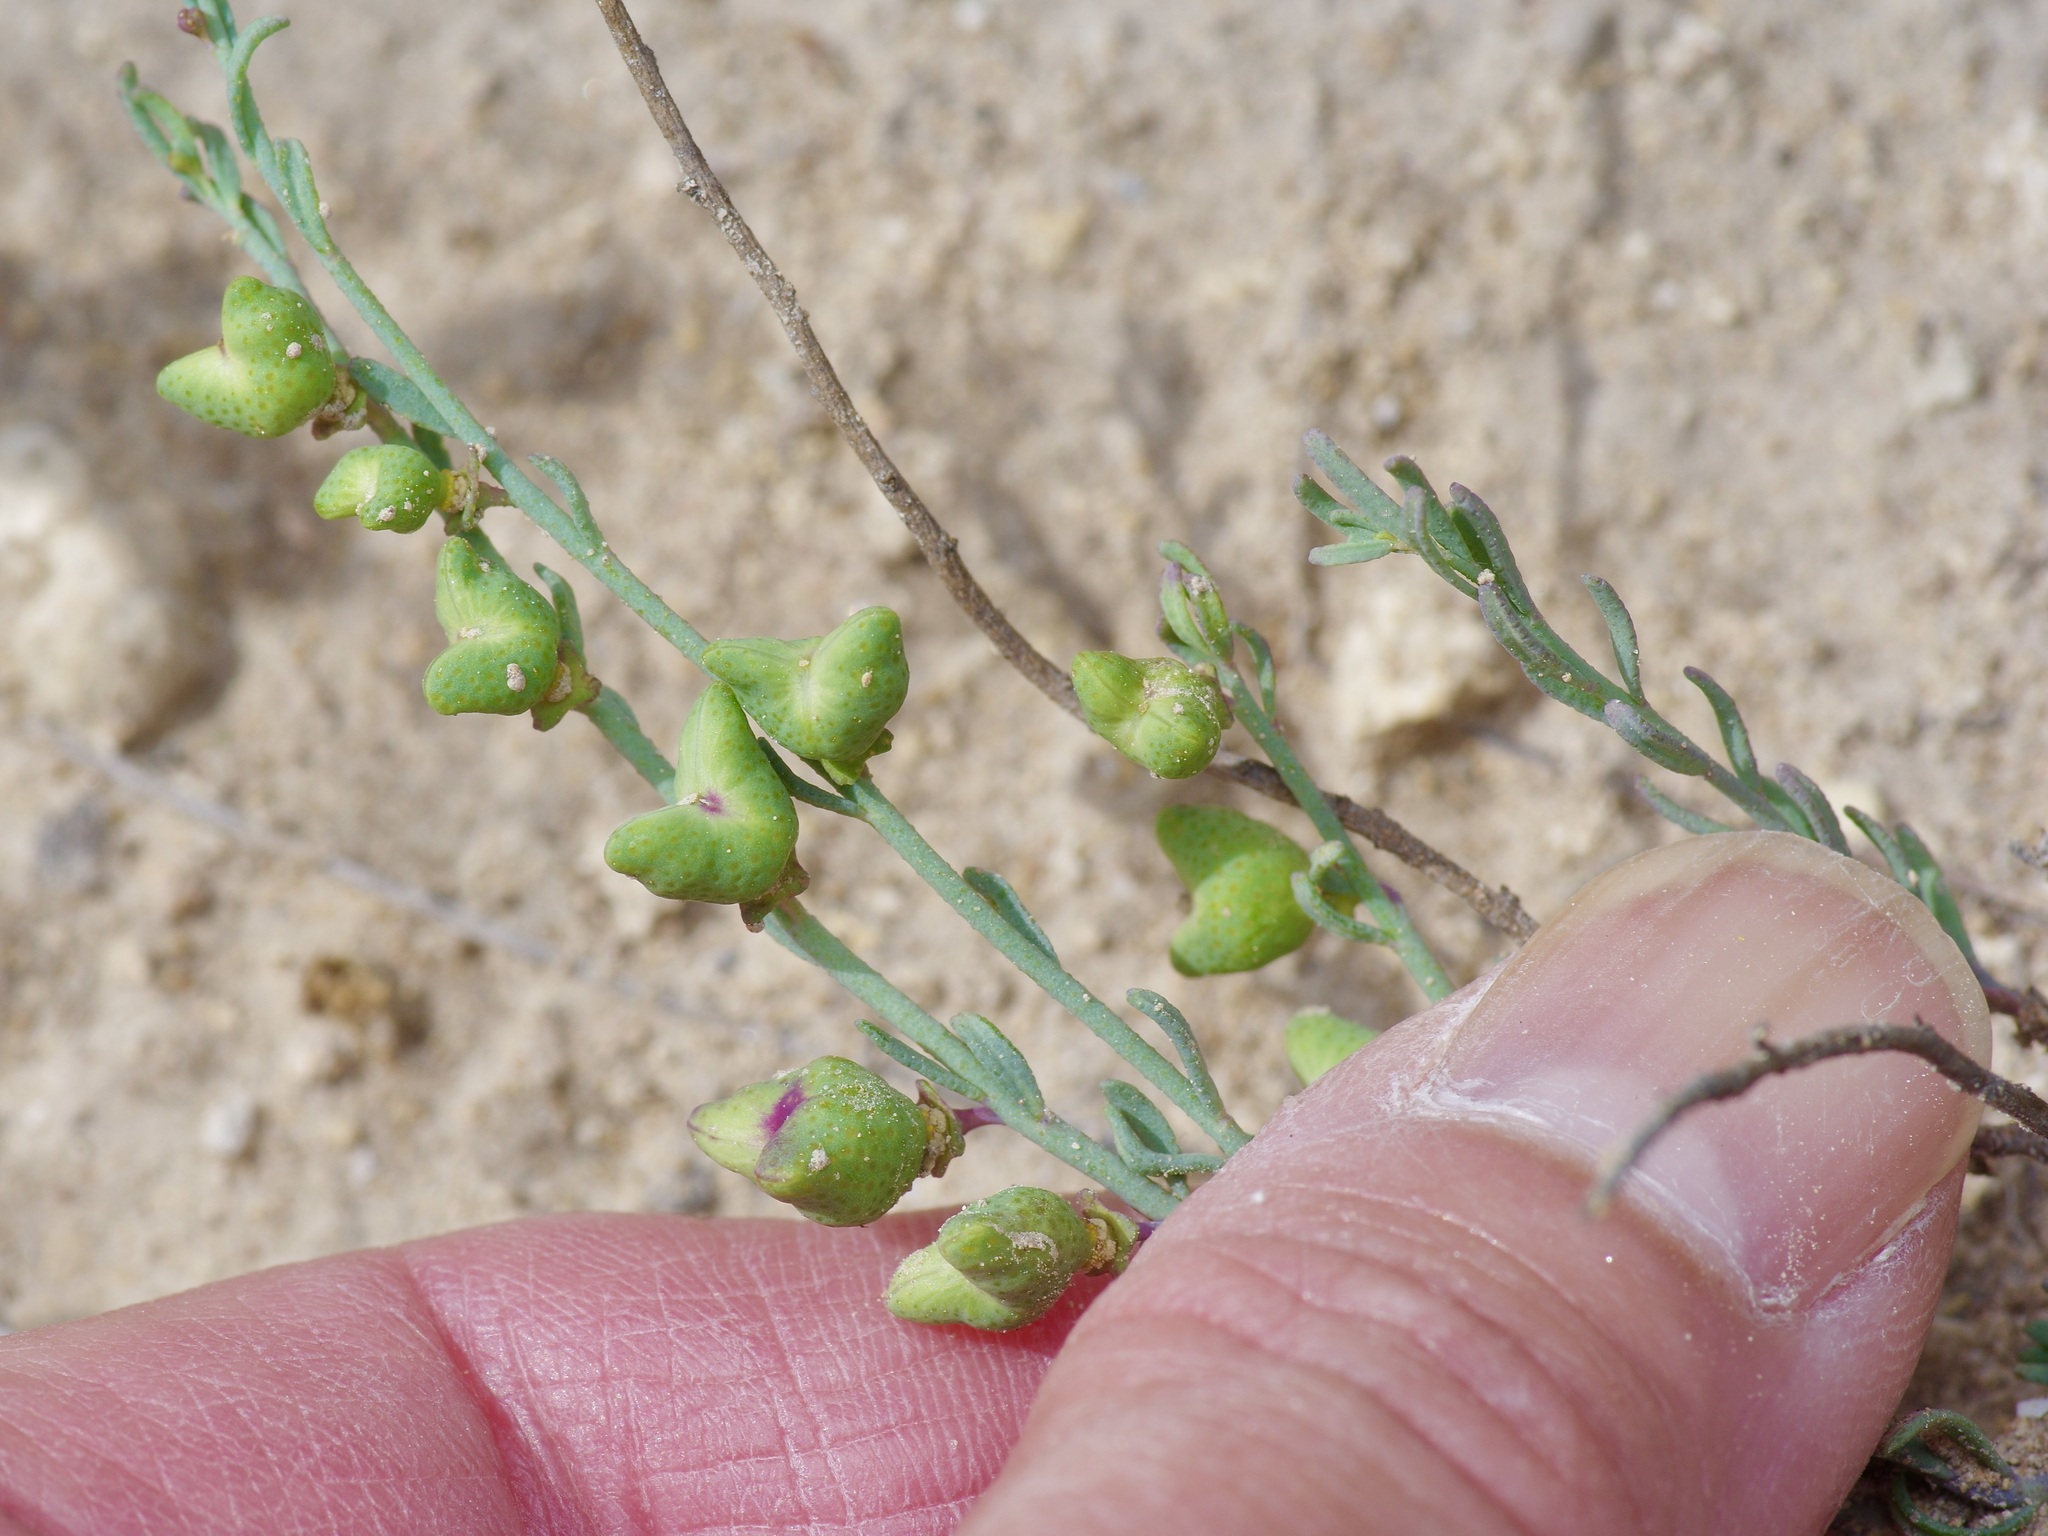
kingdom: Plantae
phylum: Tracheophyta
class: Magnoliopsida
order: Sapindales
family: Rutaceae
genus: Thamnosma
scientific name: Thamnosma texana
